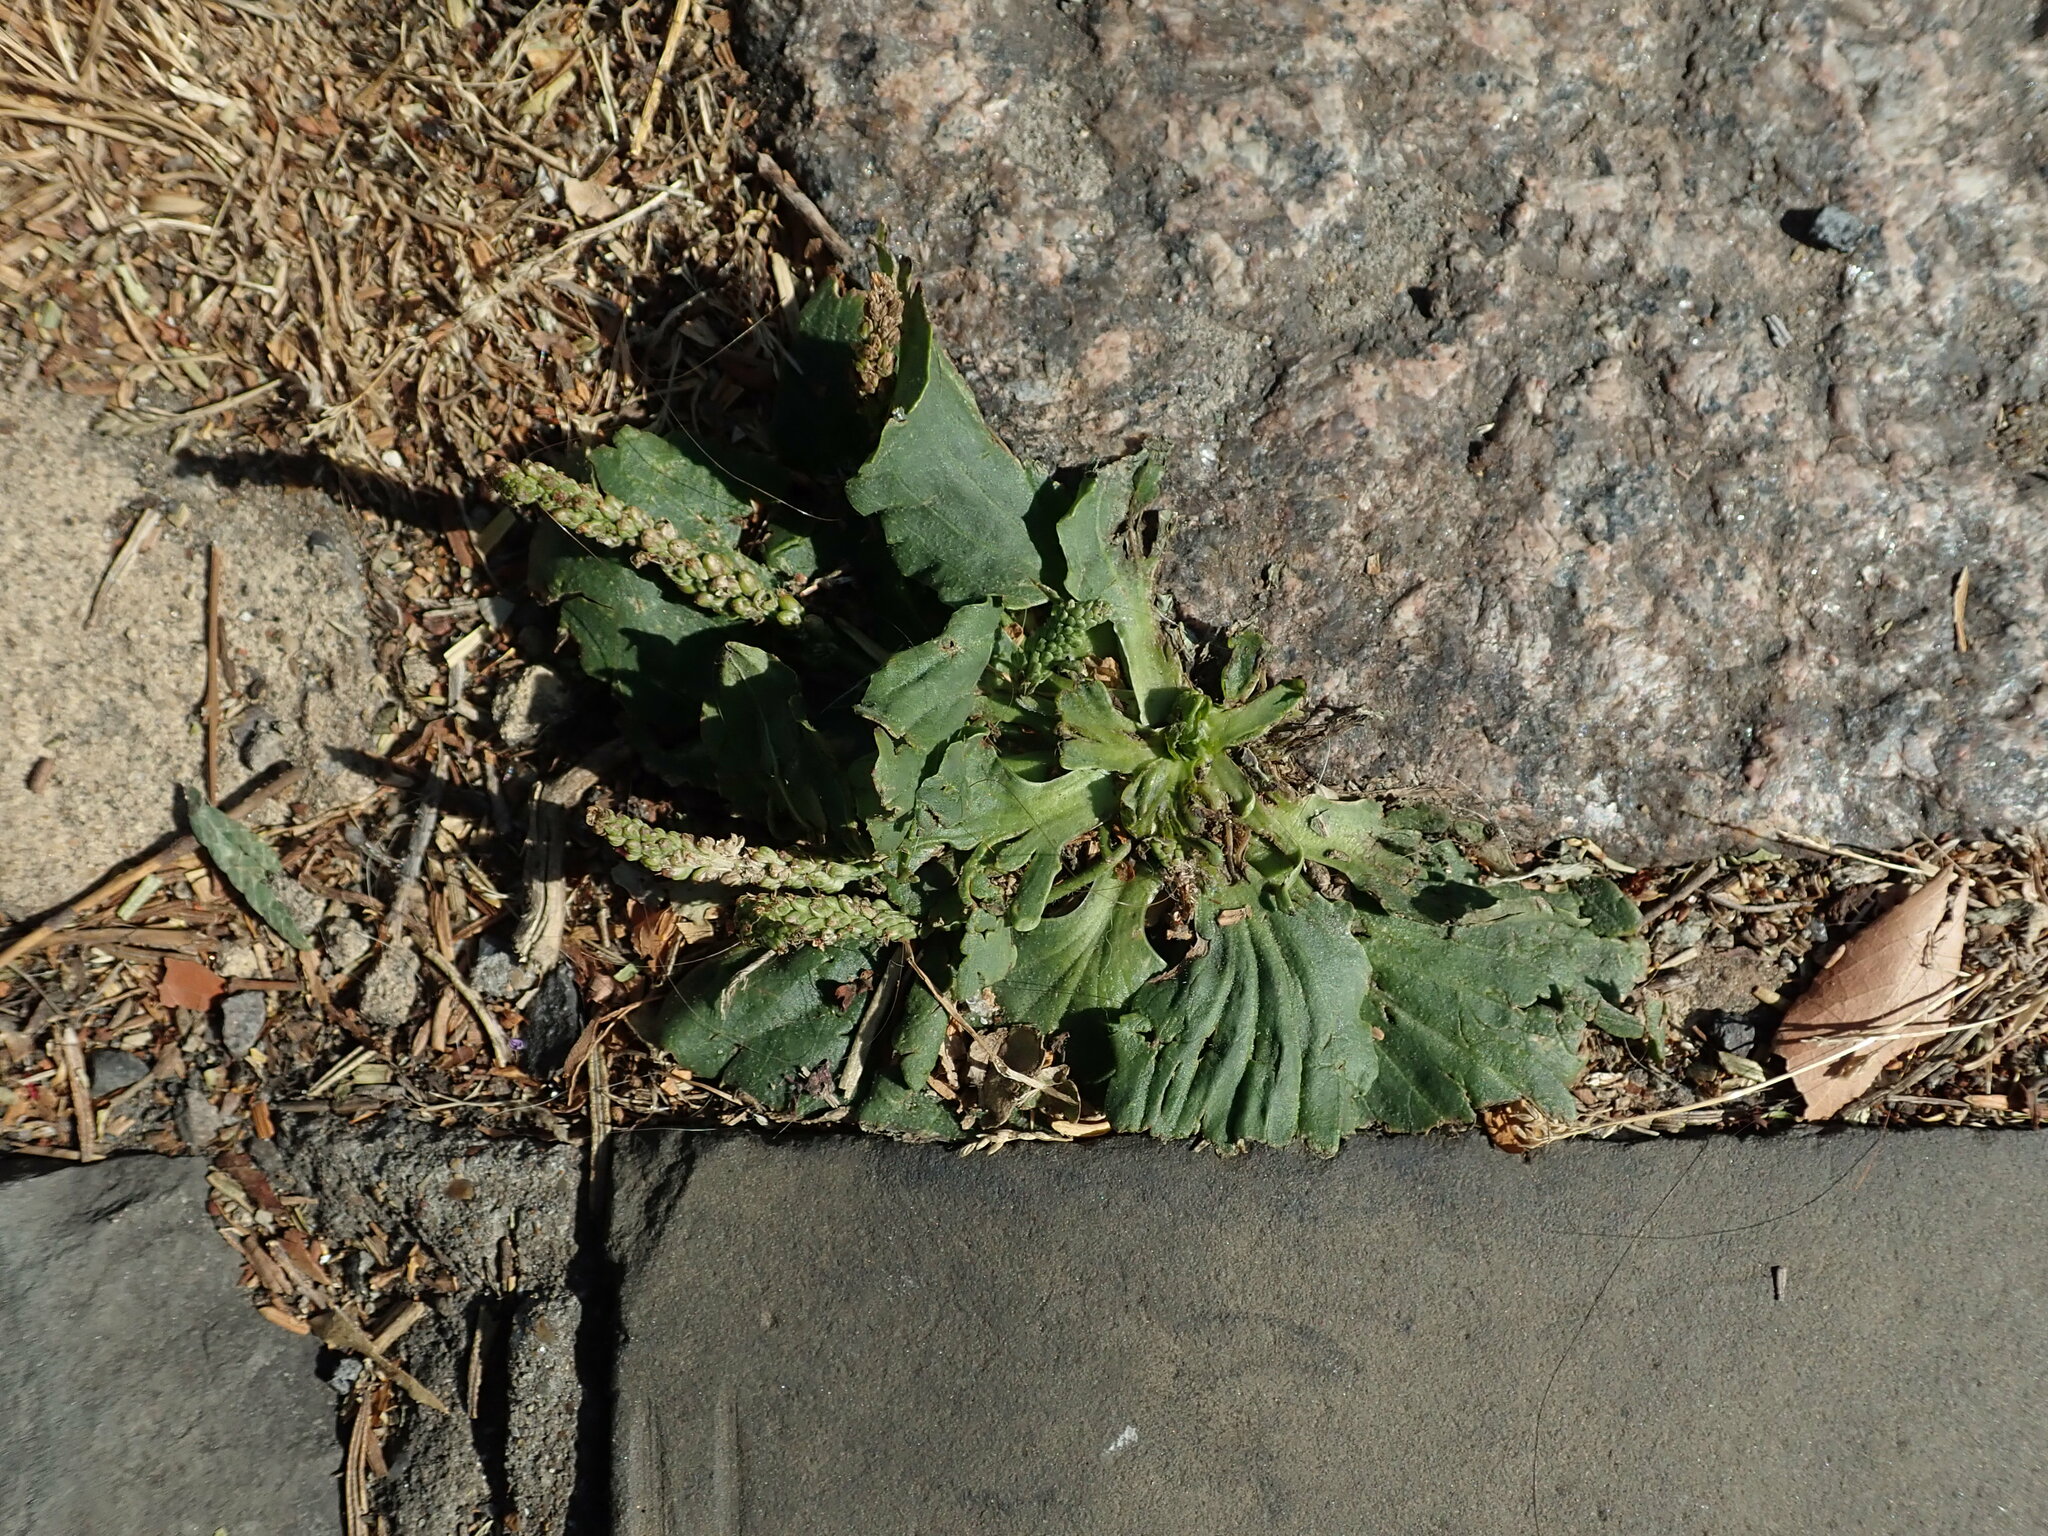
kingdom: Plantae
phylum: Tracheophyta
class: Magnoliopsida
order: Lamiales
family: Plantaginaceae
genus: Plantago
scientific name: Plantago major
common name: Common plantain
